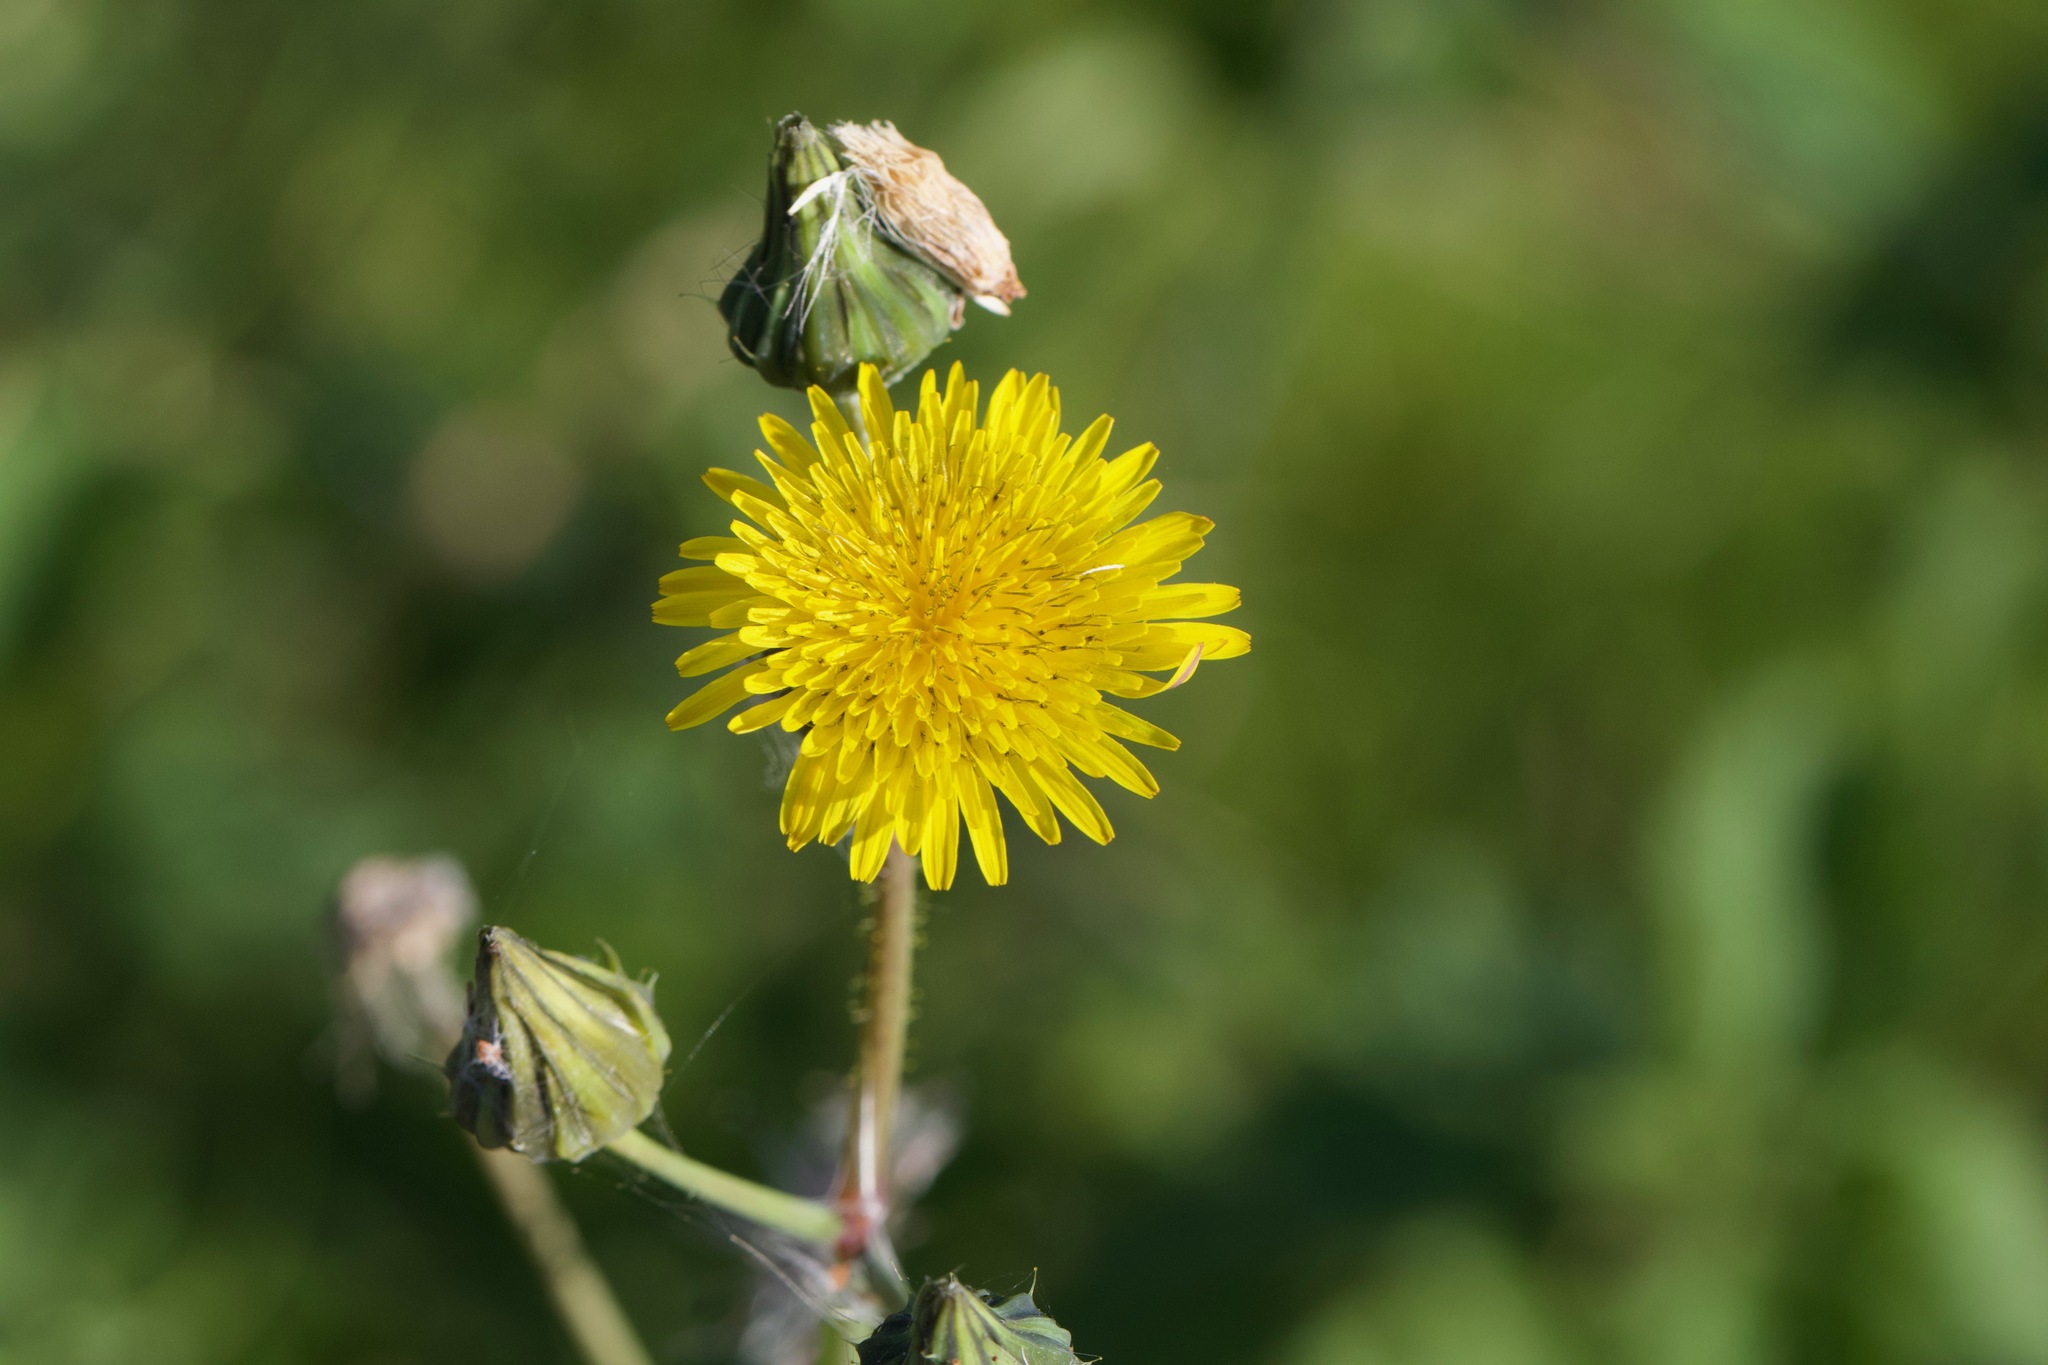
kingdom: Plantae
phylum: Tracheophyta
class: Magnoliopsida
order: Asterales
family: Asteraceae
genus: Sonchus
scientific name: Sonchus asper
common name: Prickly sow-thistle
